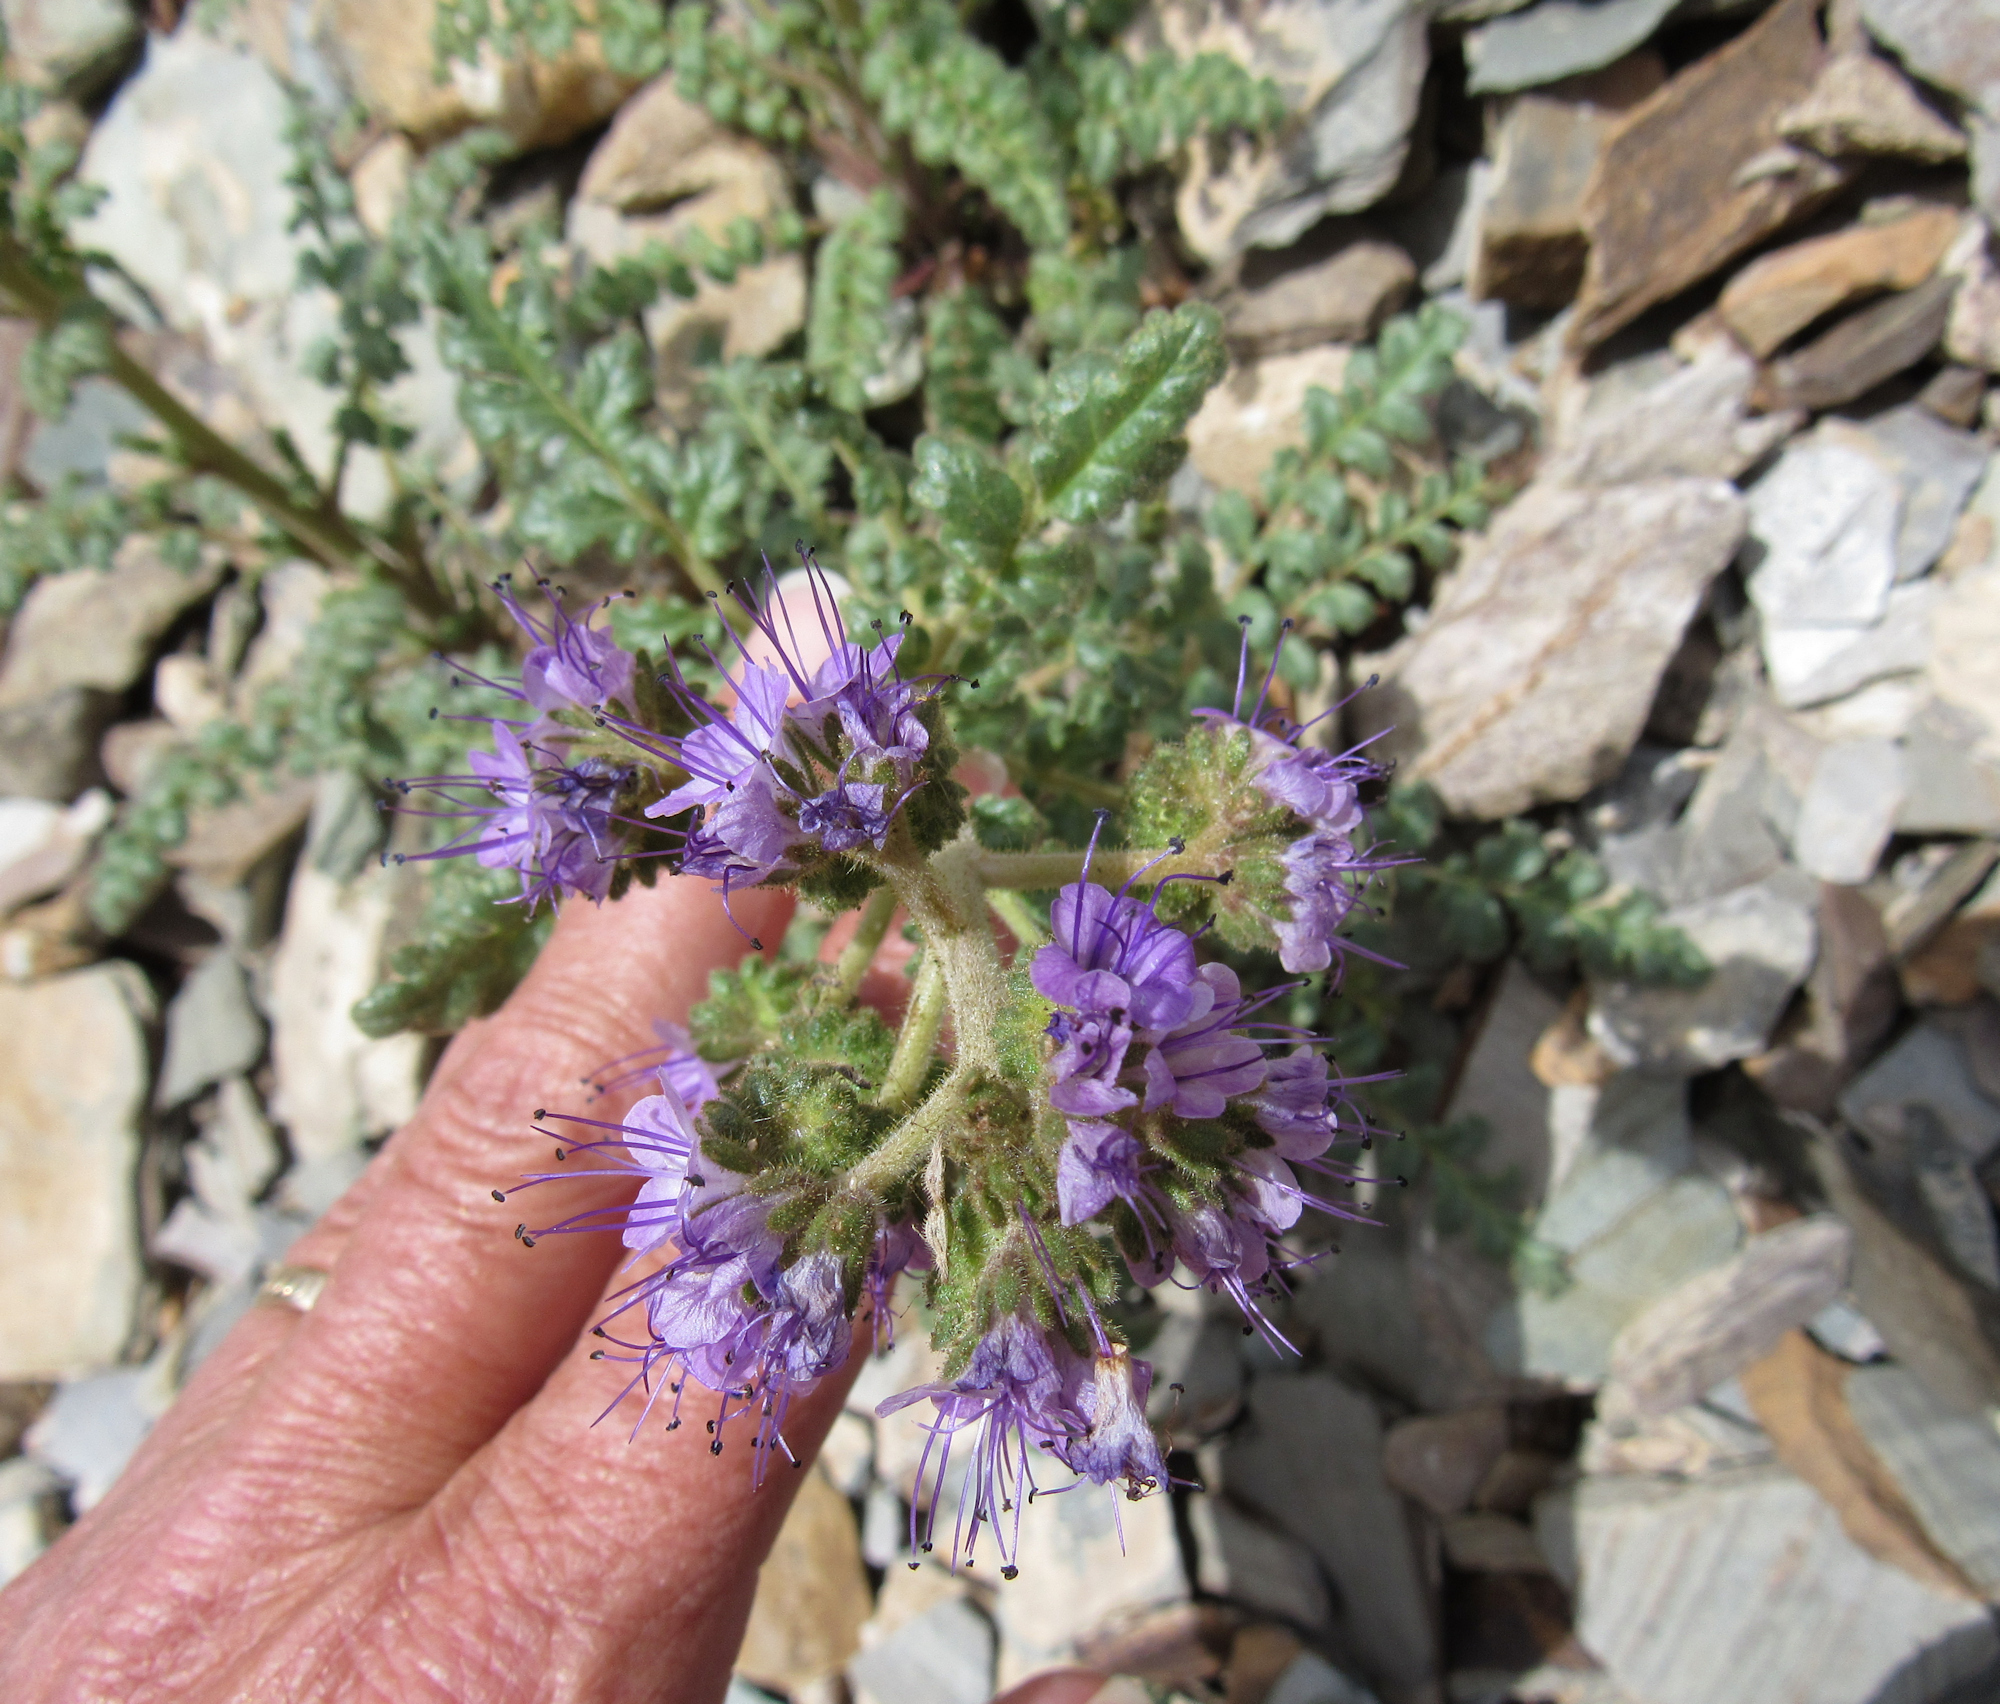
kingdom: Plantae
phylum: Tracheophyta
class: Magnoliopsida
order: Boraginales
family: Hydrophyllaceae
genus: Phacelia
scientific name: Phacelia glandulosa
